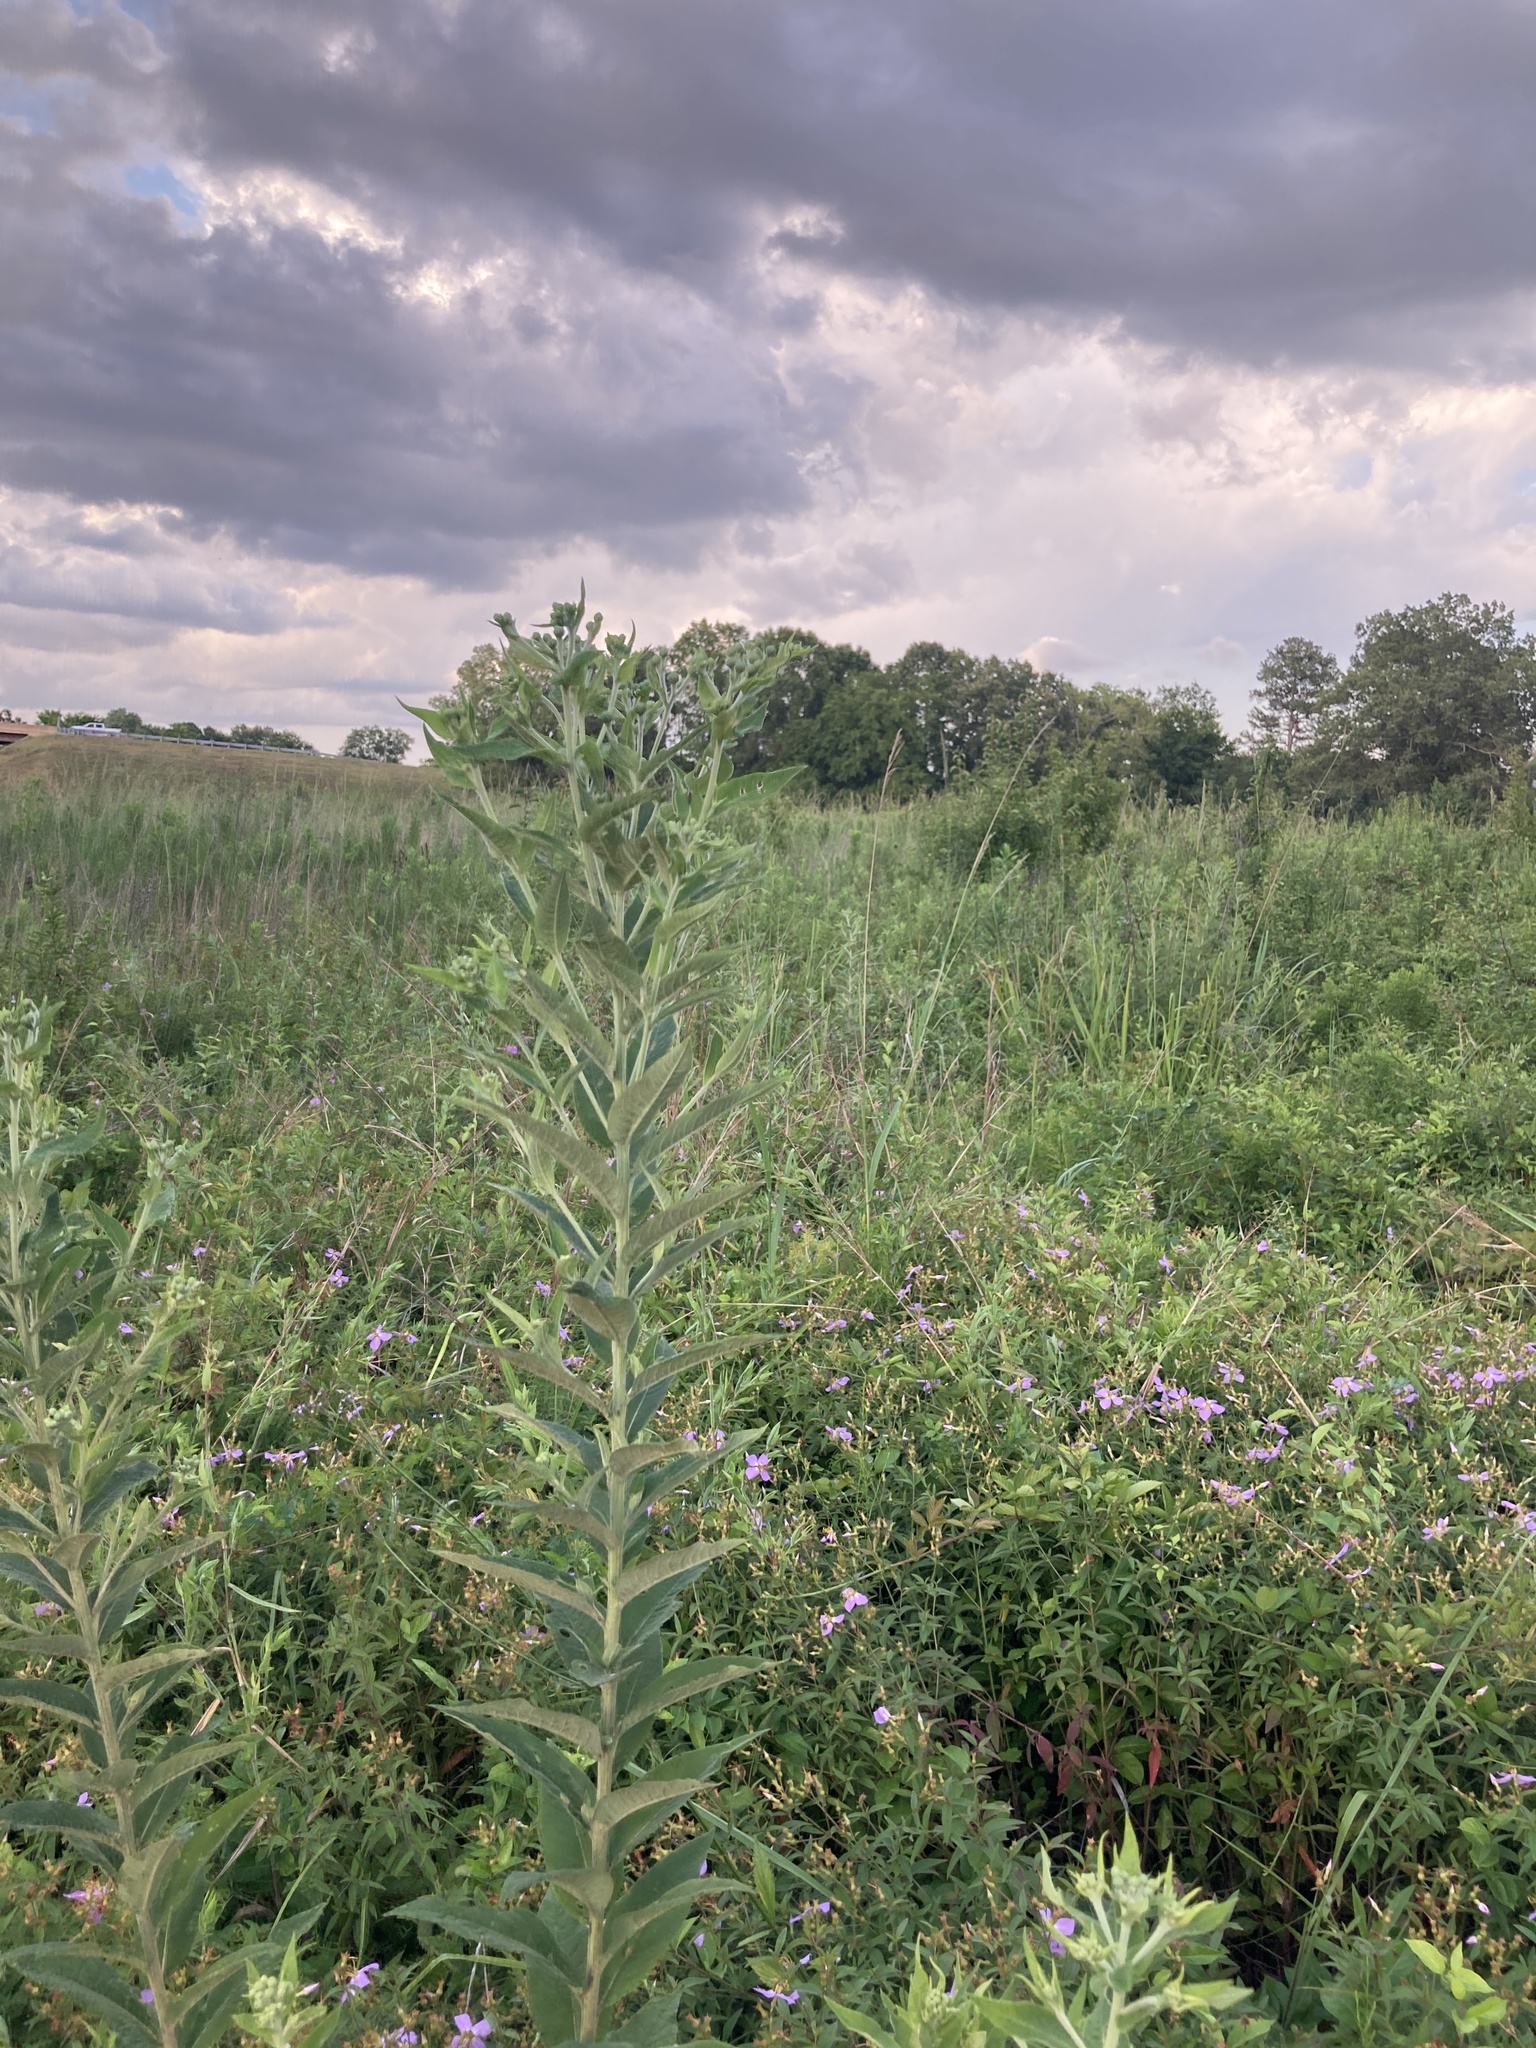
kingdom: Plantae
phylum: Tracheophyta
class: Magnoliopsida
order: Asterales
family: Asteraceae
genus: Vernonia
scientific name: Vernonia missurica
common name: Missouri ironweed
